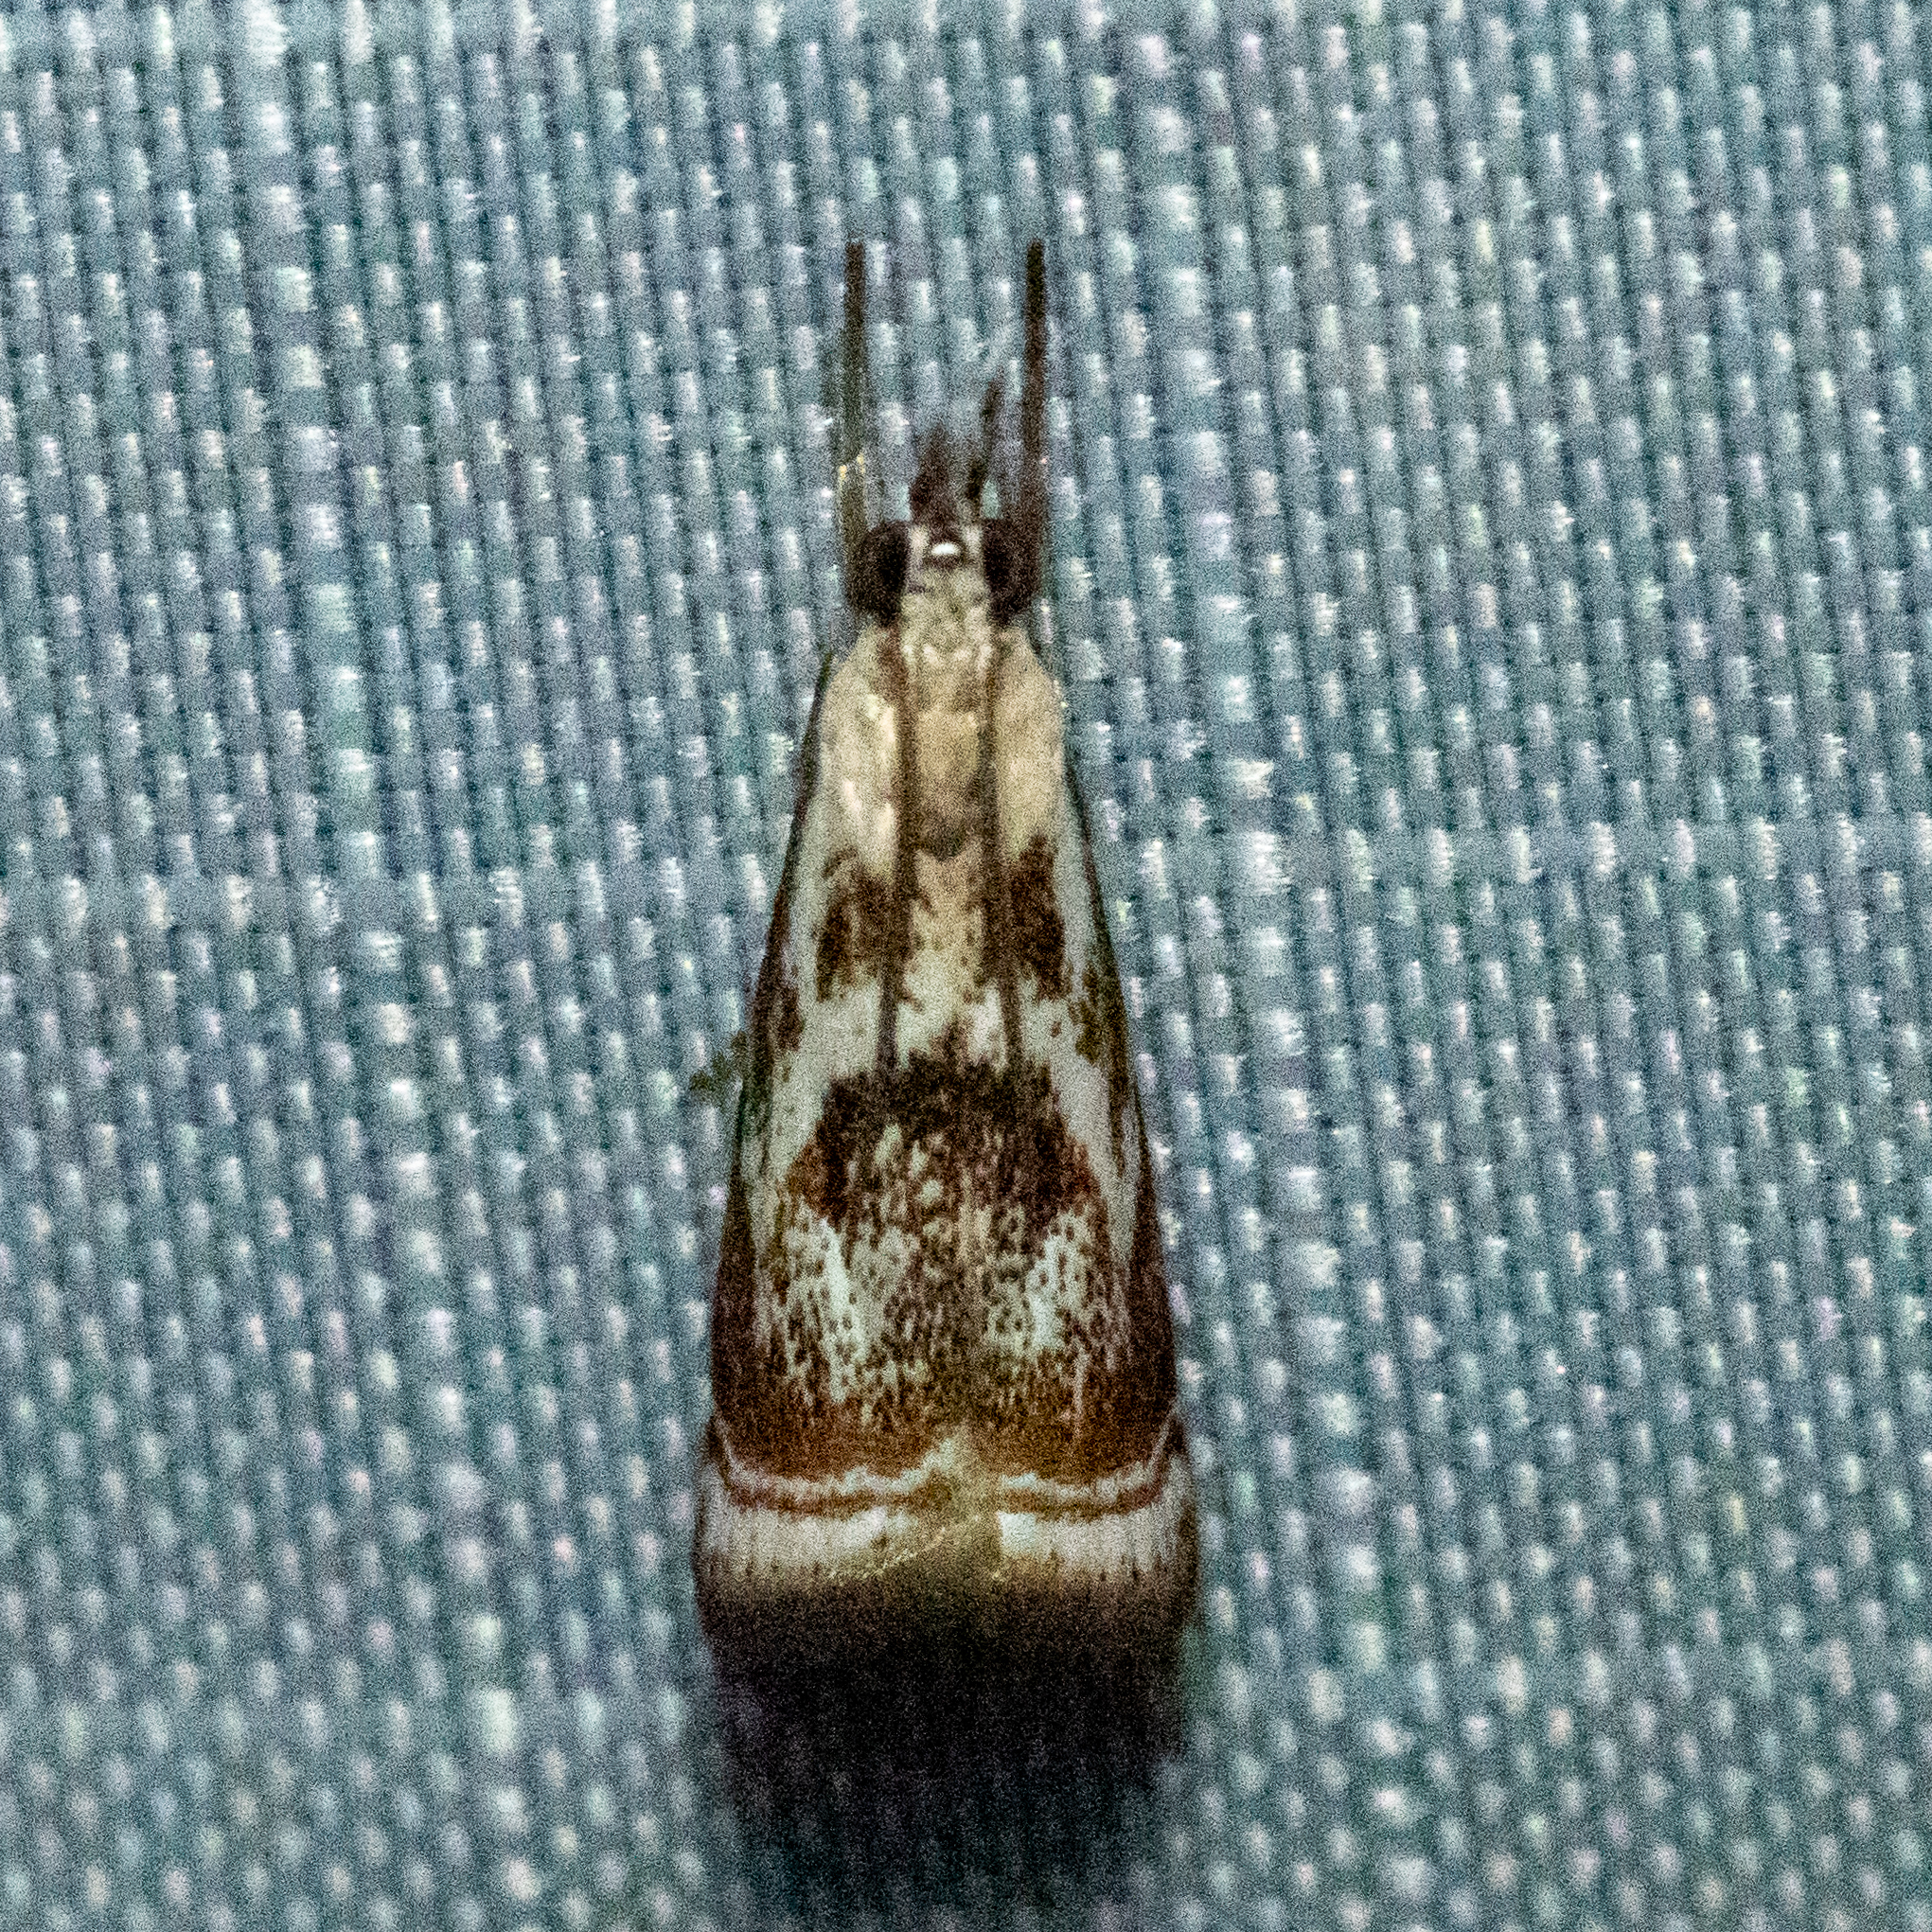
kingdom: Animalia
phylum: Arthropoda
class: Insecta
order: Lepidoptera
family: Crambidae
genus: Microcrambus
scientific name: Microcrambus elegans
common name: Elegant grass-veneer
